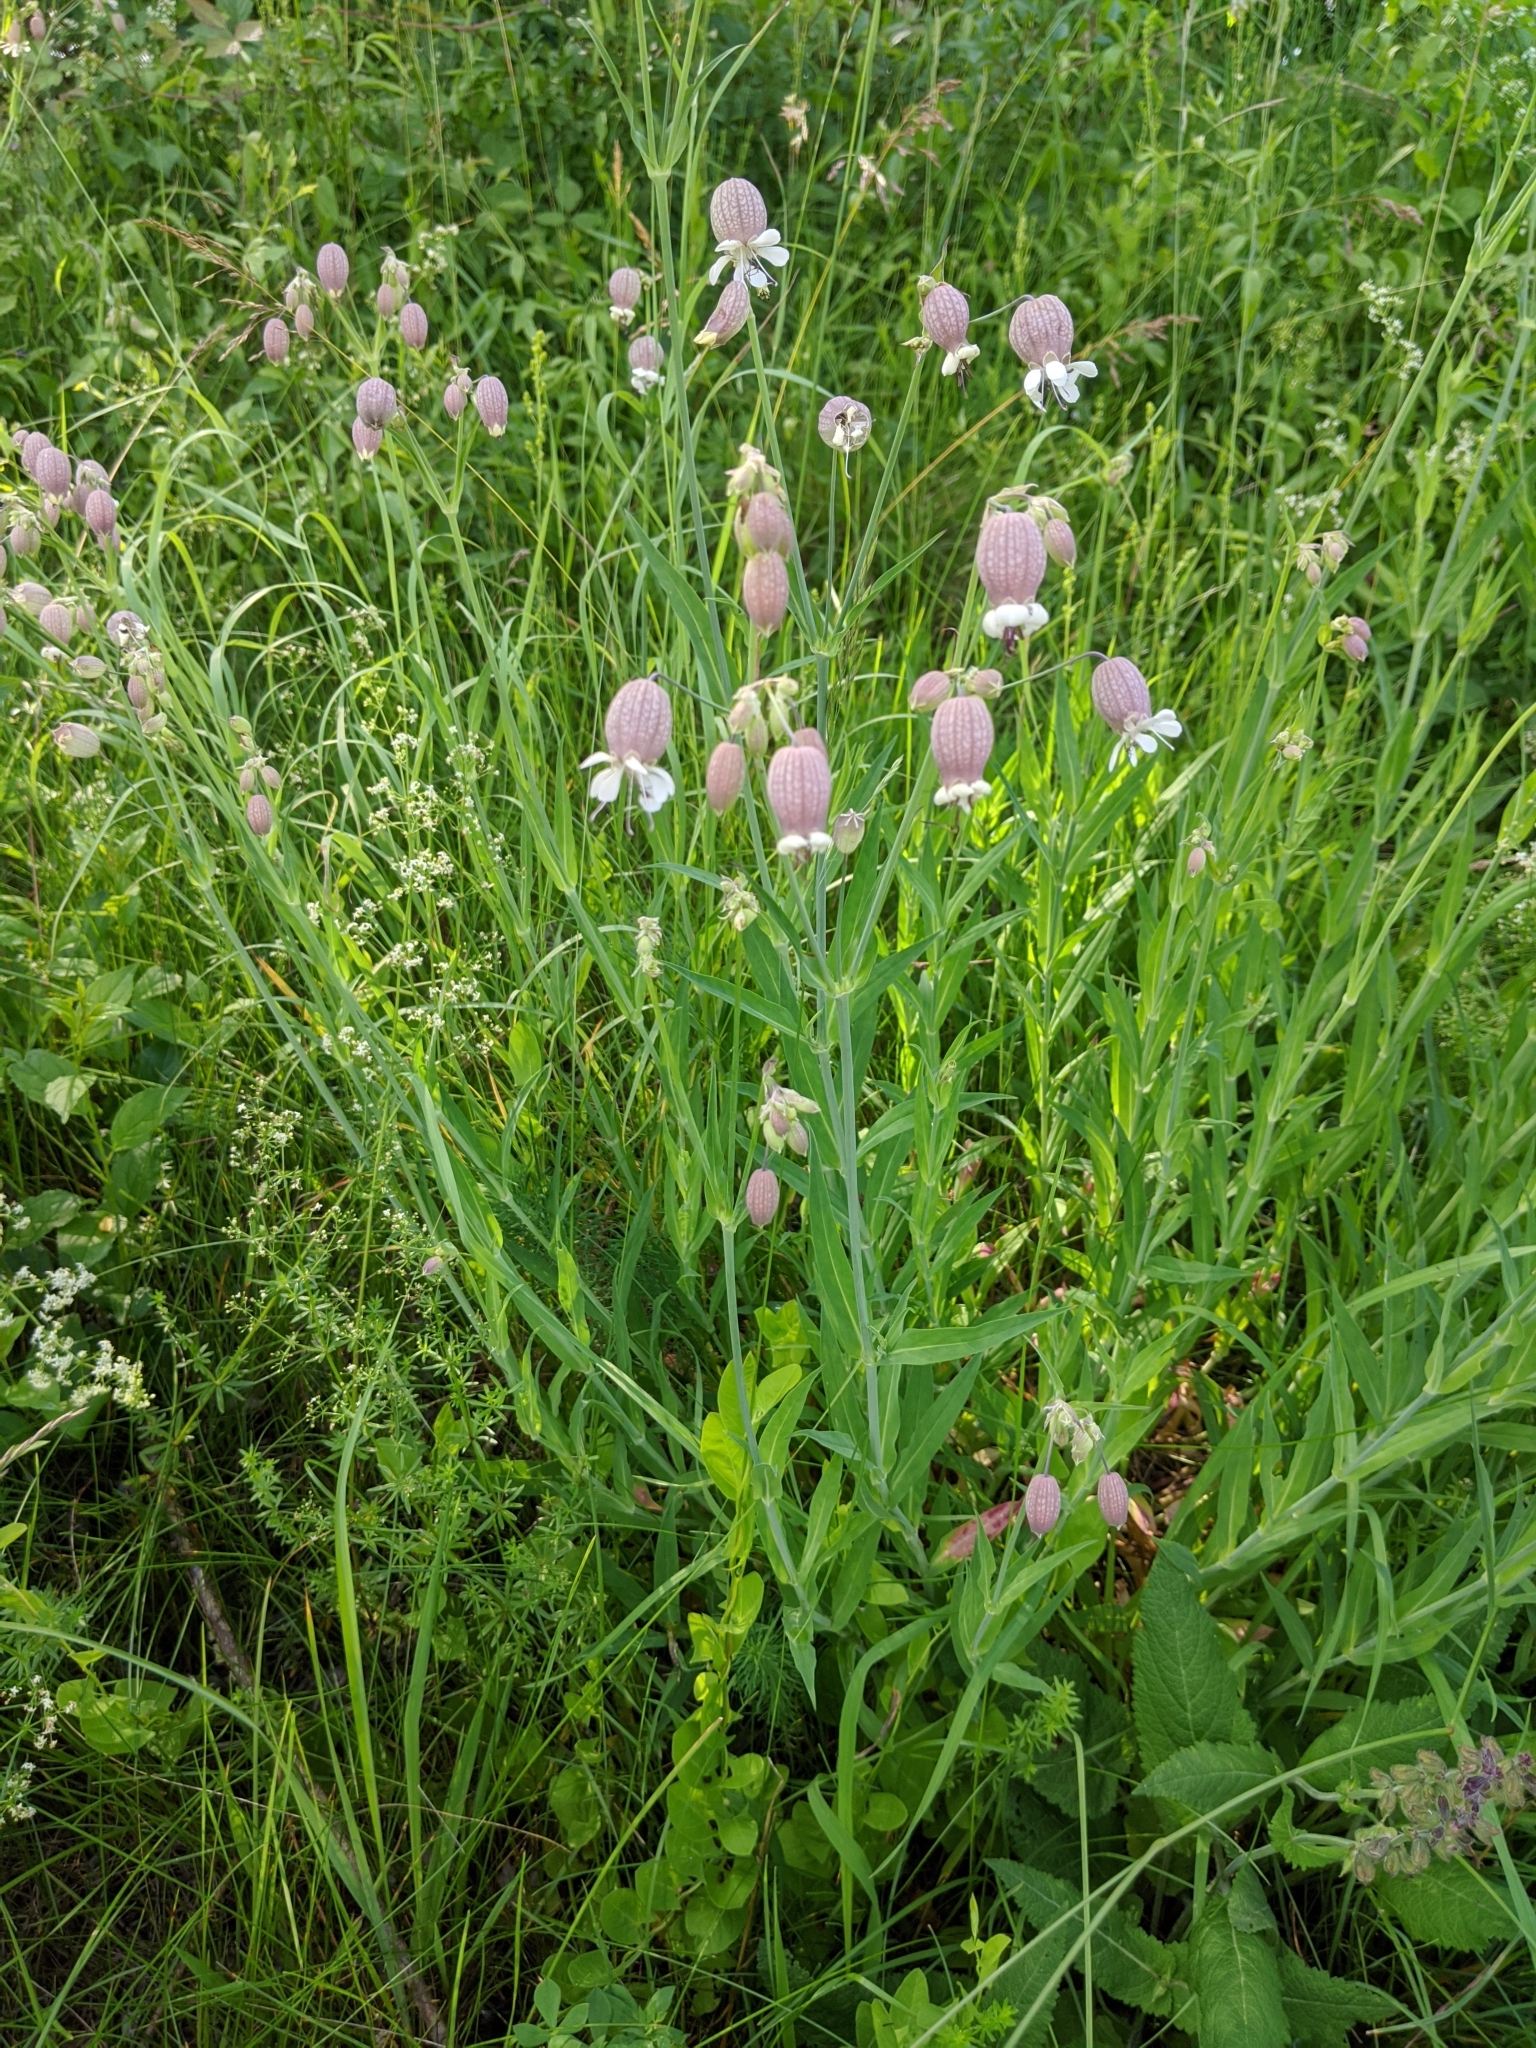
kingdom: Plantae
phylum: Tracheophyta
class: Magnoliopsida
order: Caryophyllales
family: Caryophyllaceae
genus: Silene
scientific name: Silene vulgaris
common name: Bladder campion
